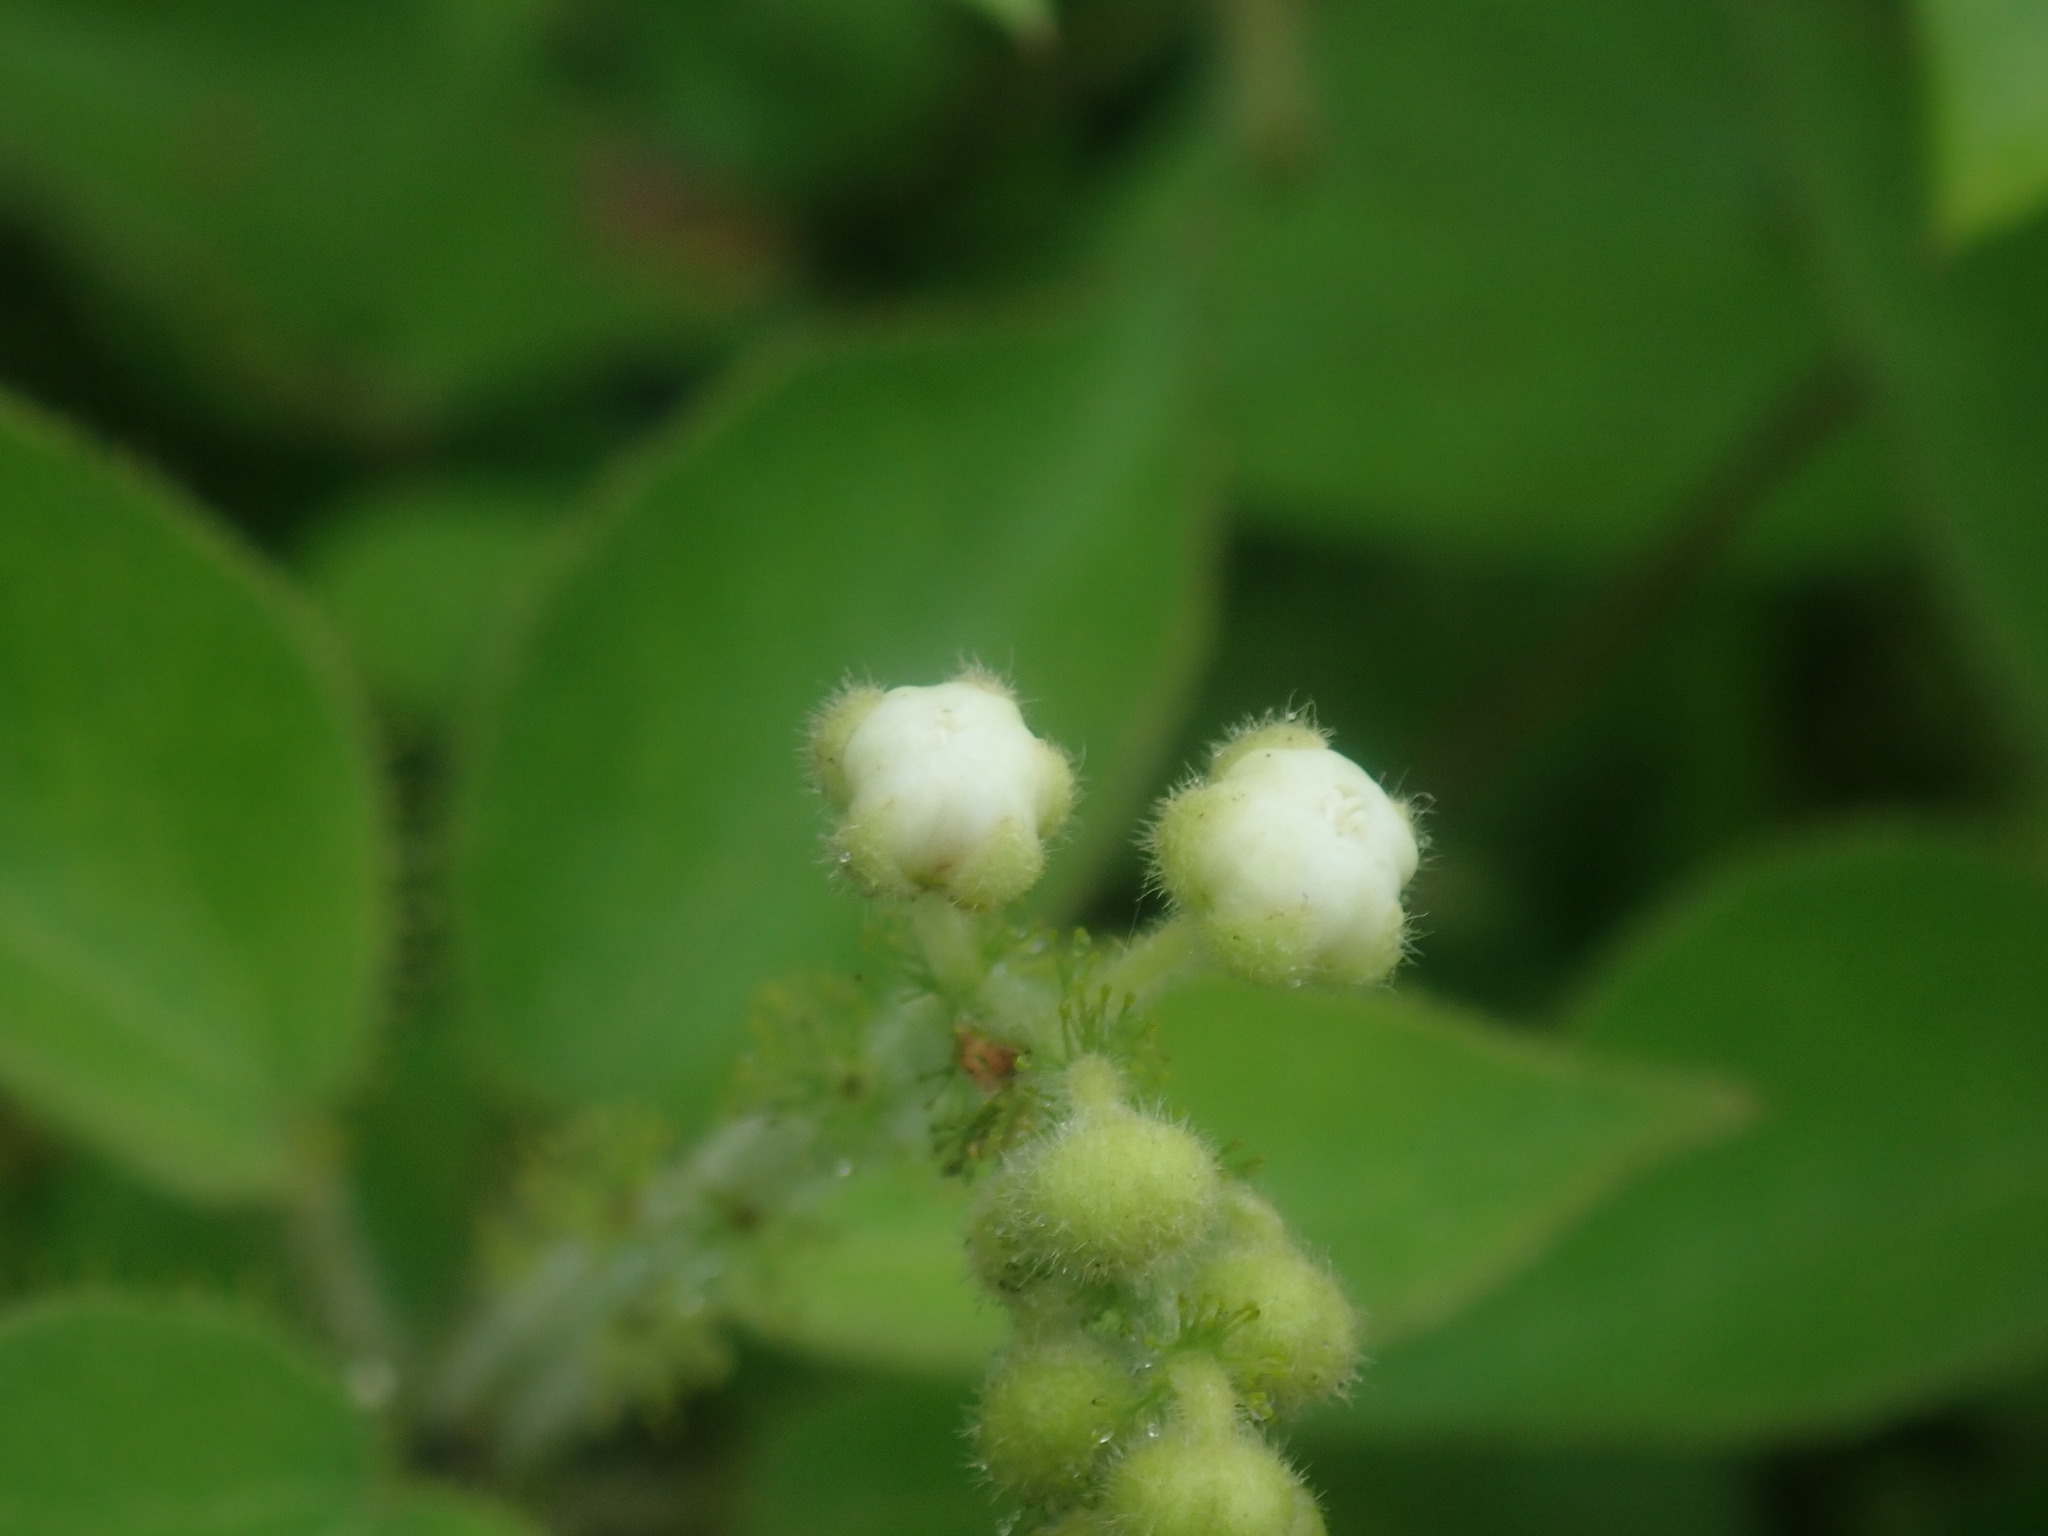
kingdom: Plantae
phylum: Tracheophyta
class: Magnoliopsida
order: Malpighiales
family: Euphorbiaceae
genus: Croton
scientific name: Croton ciliatoglandulifer
